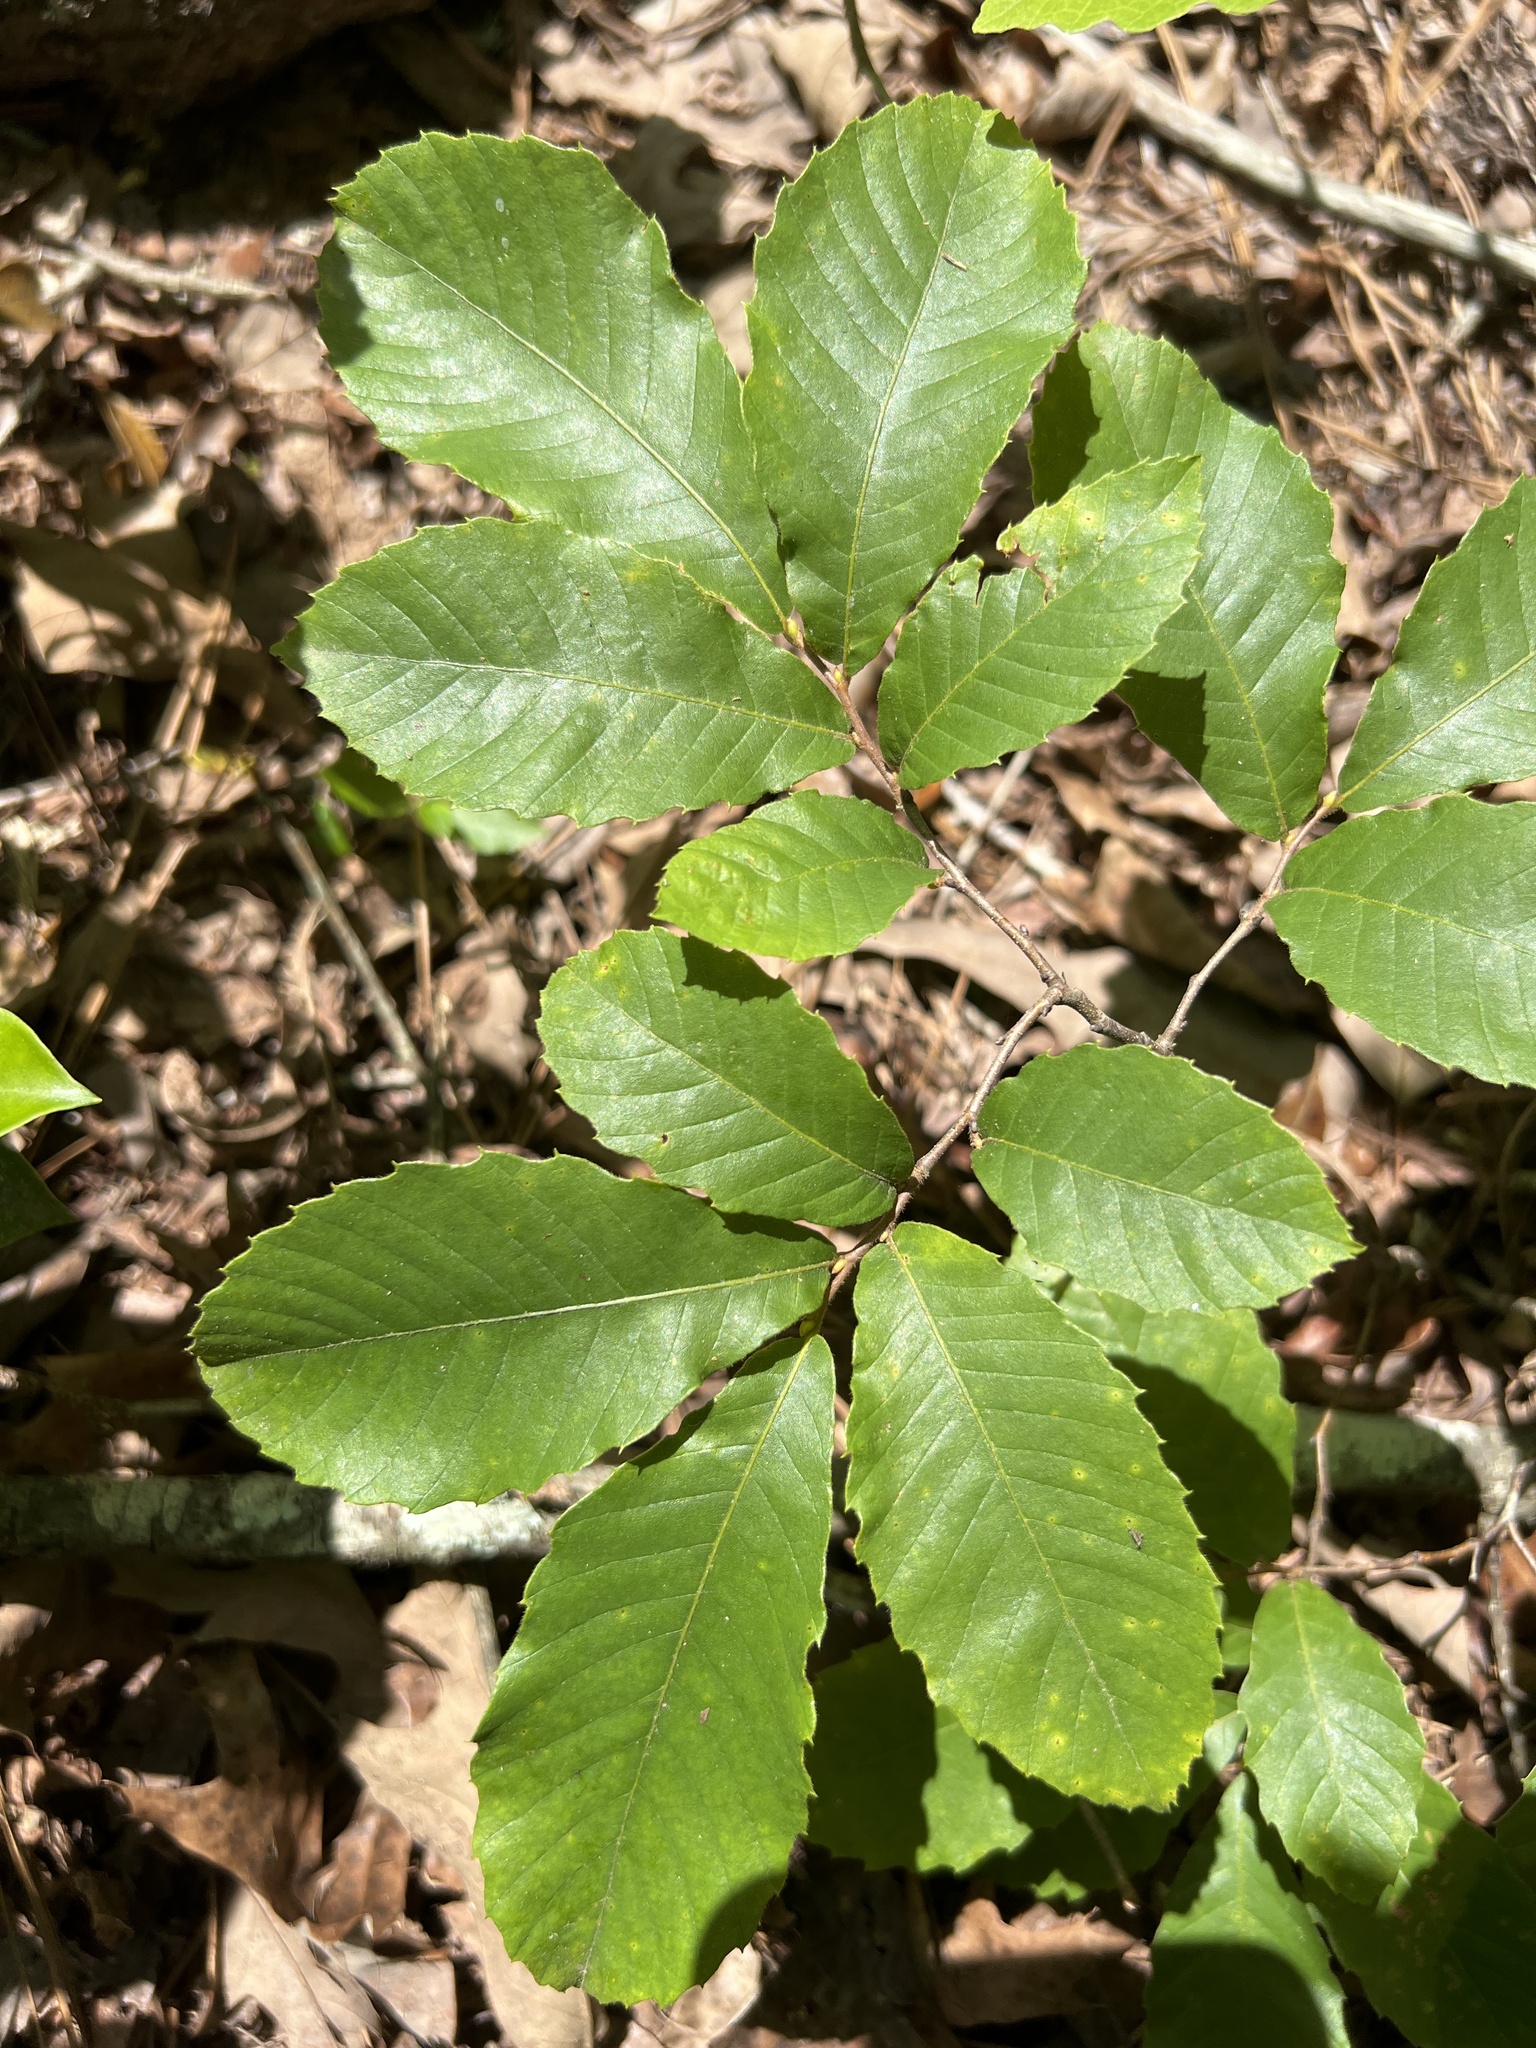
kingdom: Plantae
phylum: Tracheophyta
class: Magnoliopsida
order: Fagales
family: Fagaceae
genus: Castanea
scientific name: Castanea pumila
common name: Chinkapin
